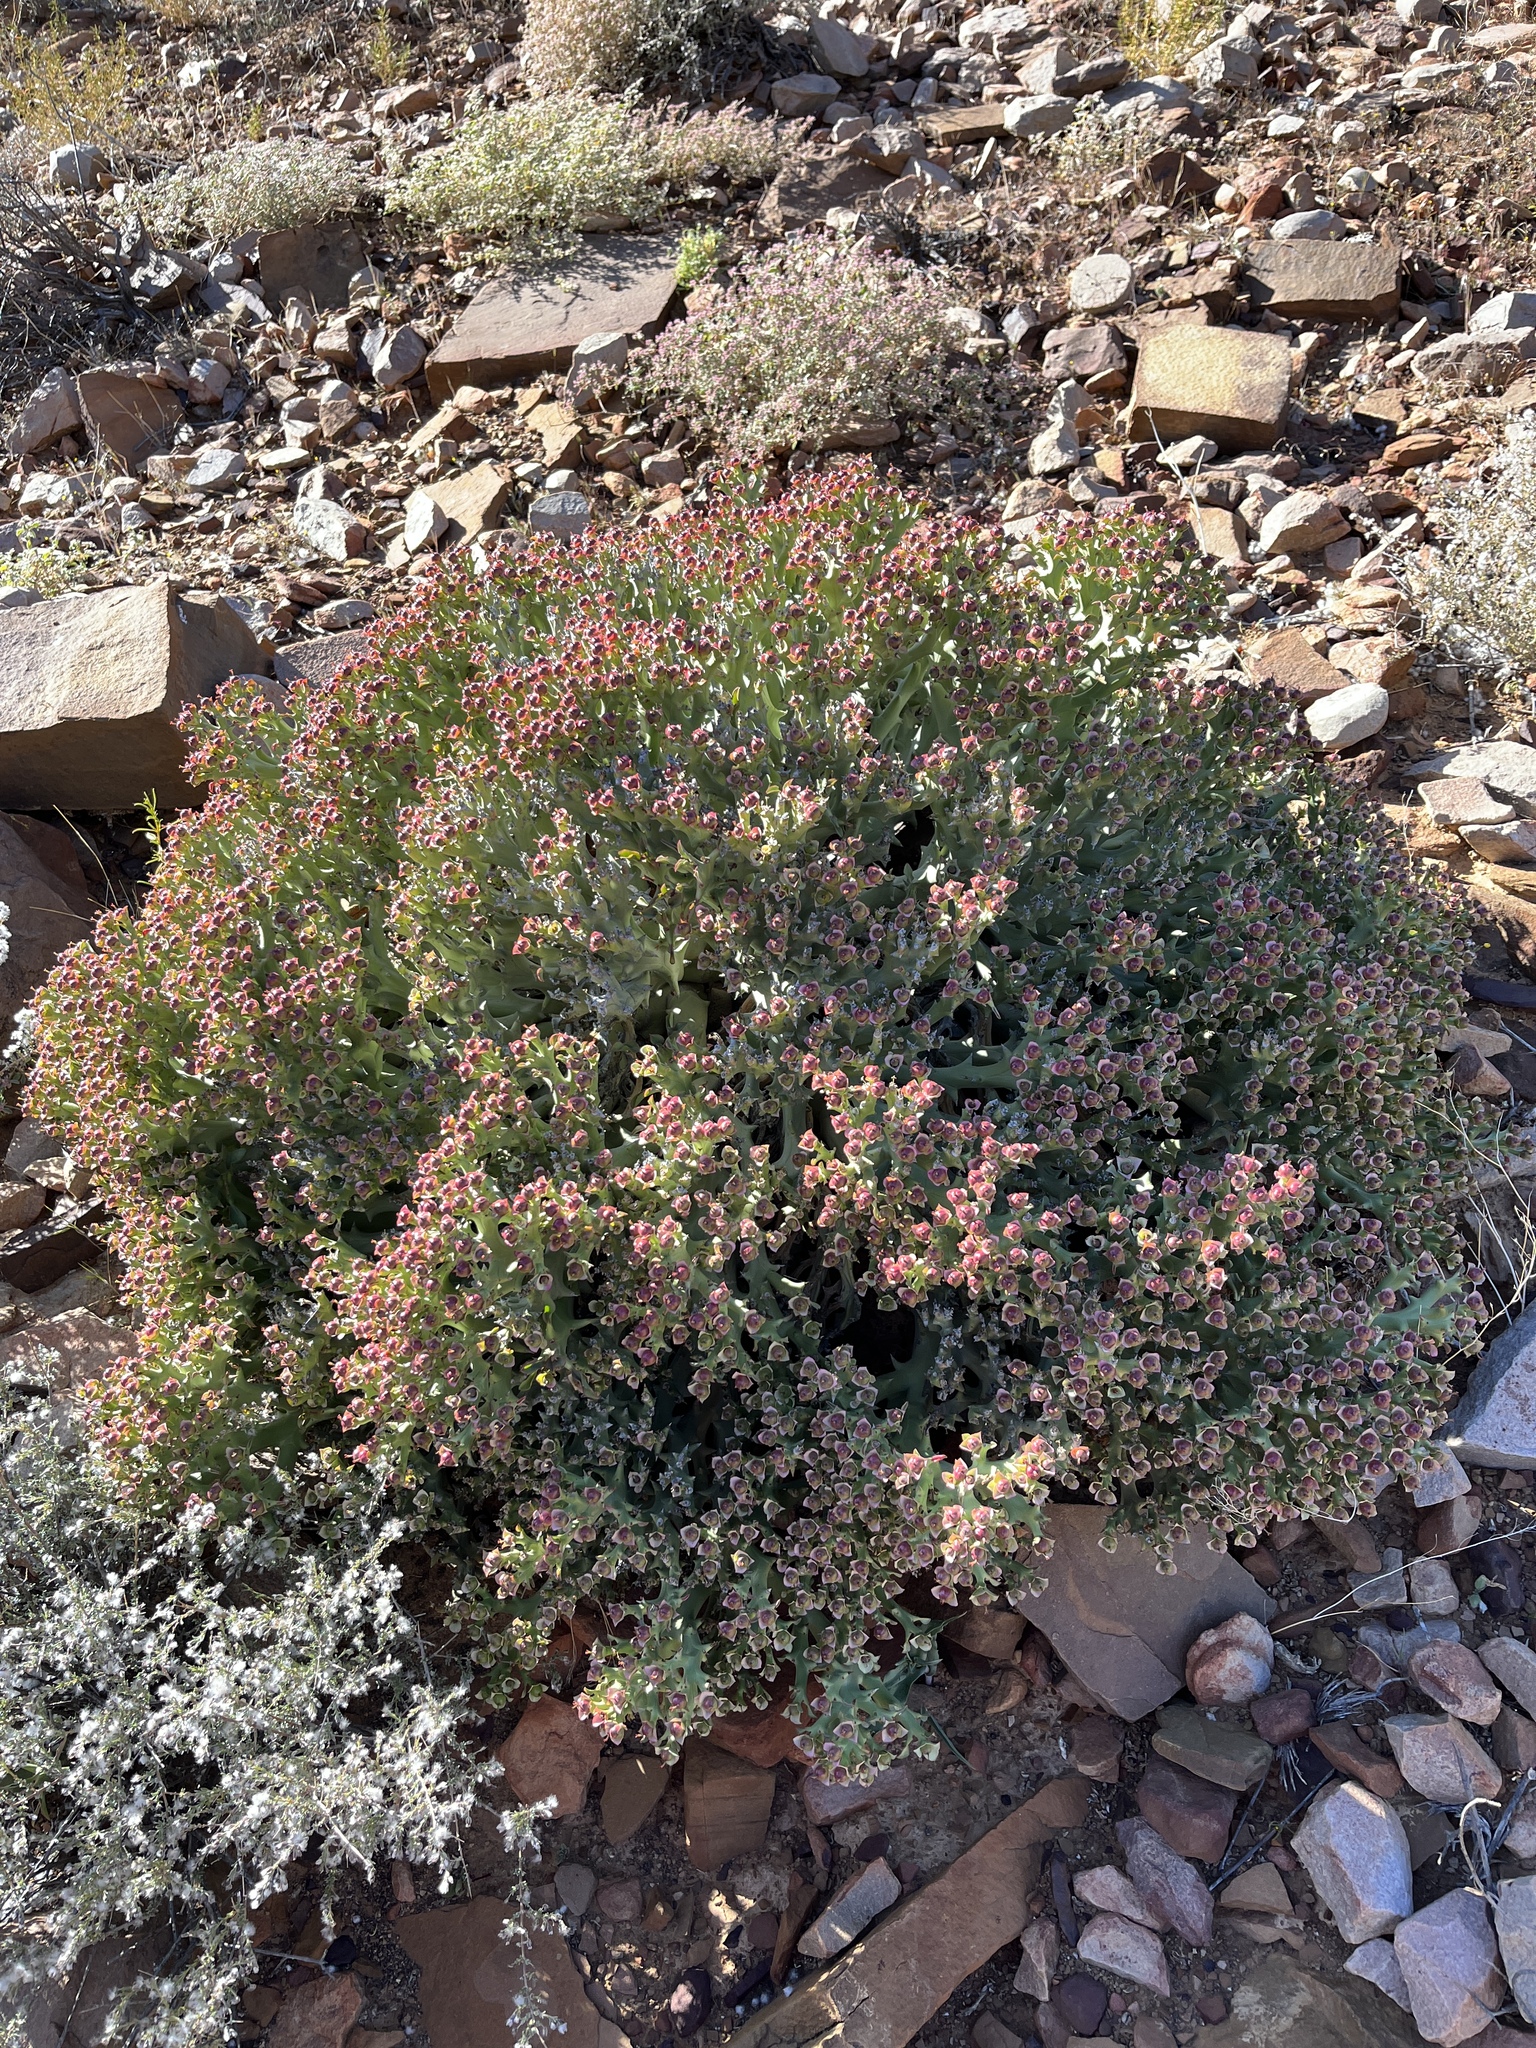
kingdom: Plantae
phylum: Tracheophyta
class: Magnoliopsida
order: Malpighiales
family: Euphorbiaceae
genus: Euphorbia
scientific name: Euphorbia hamata
